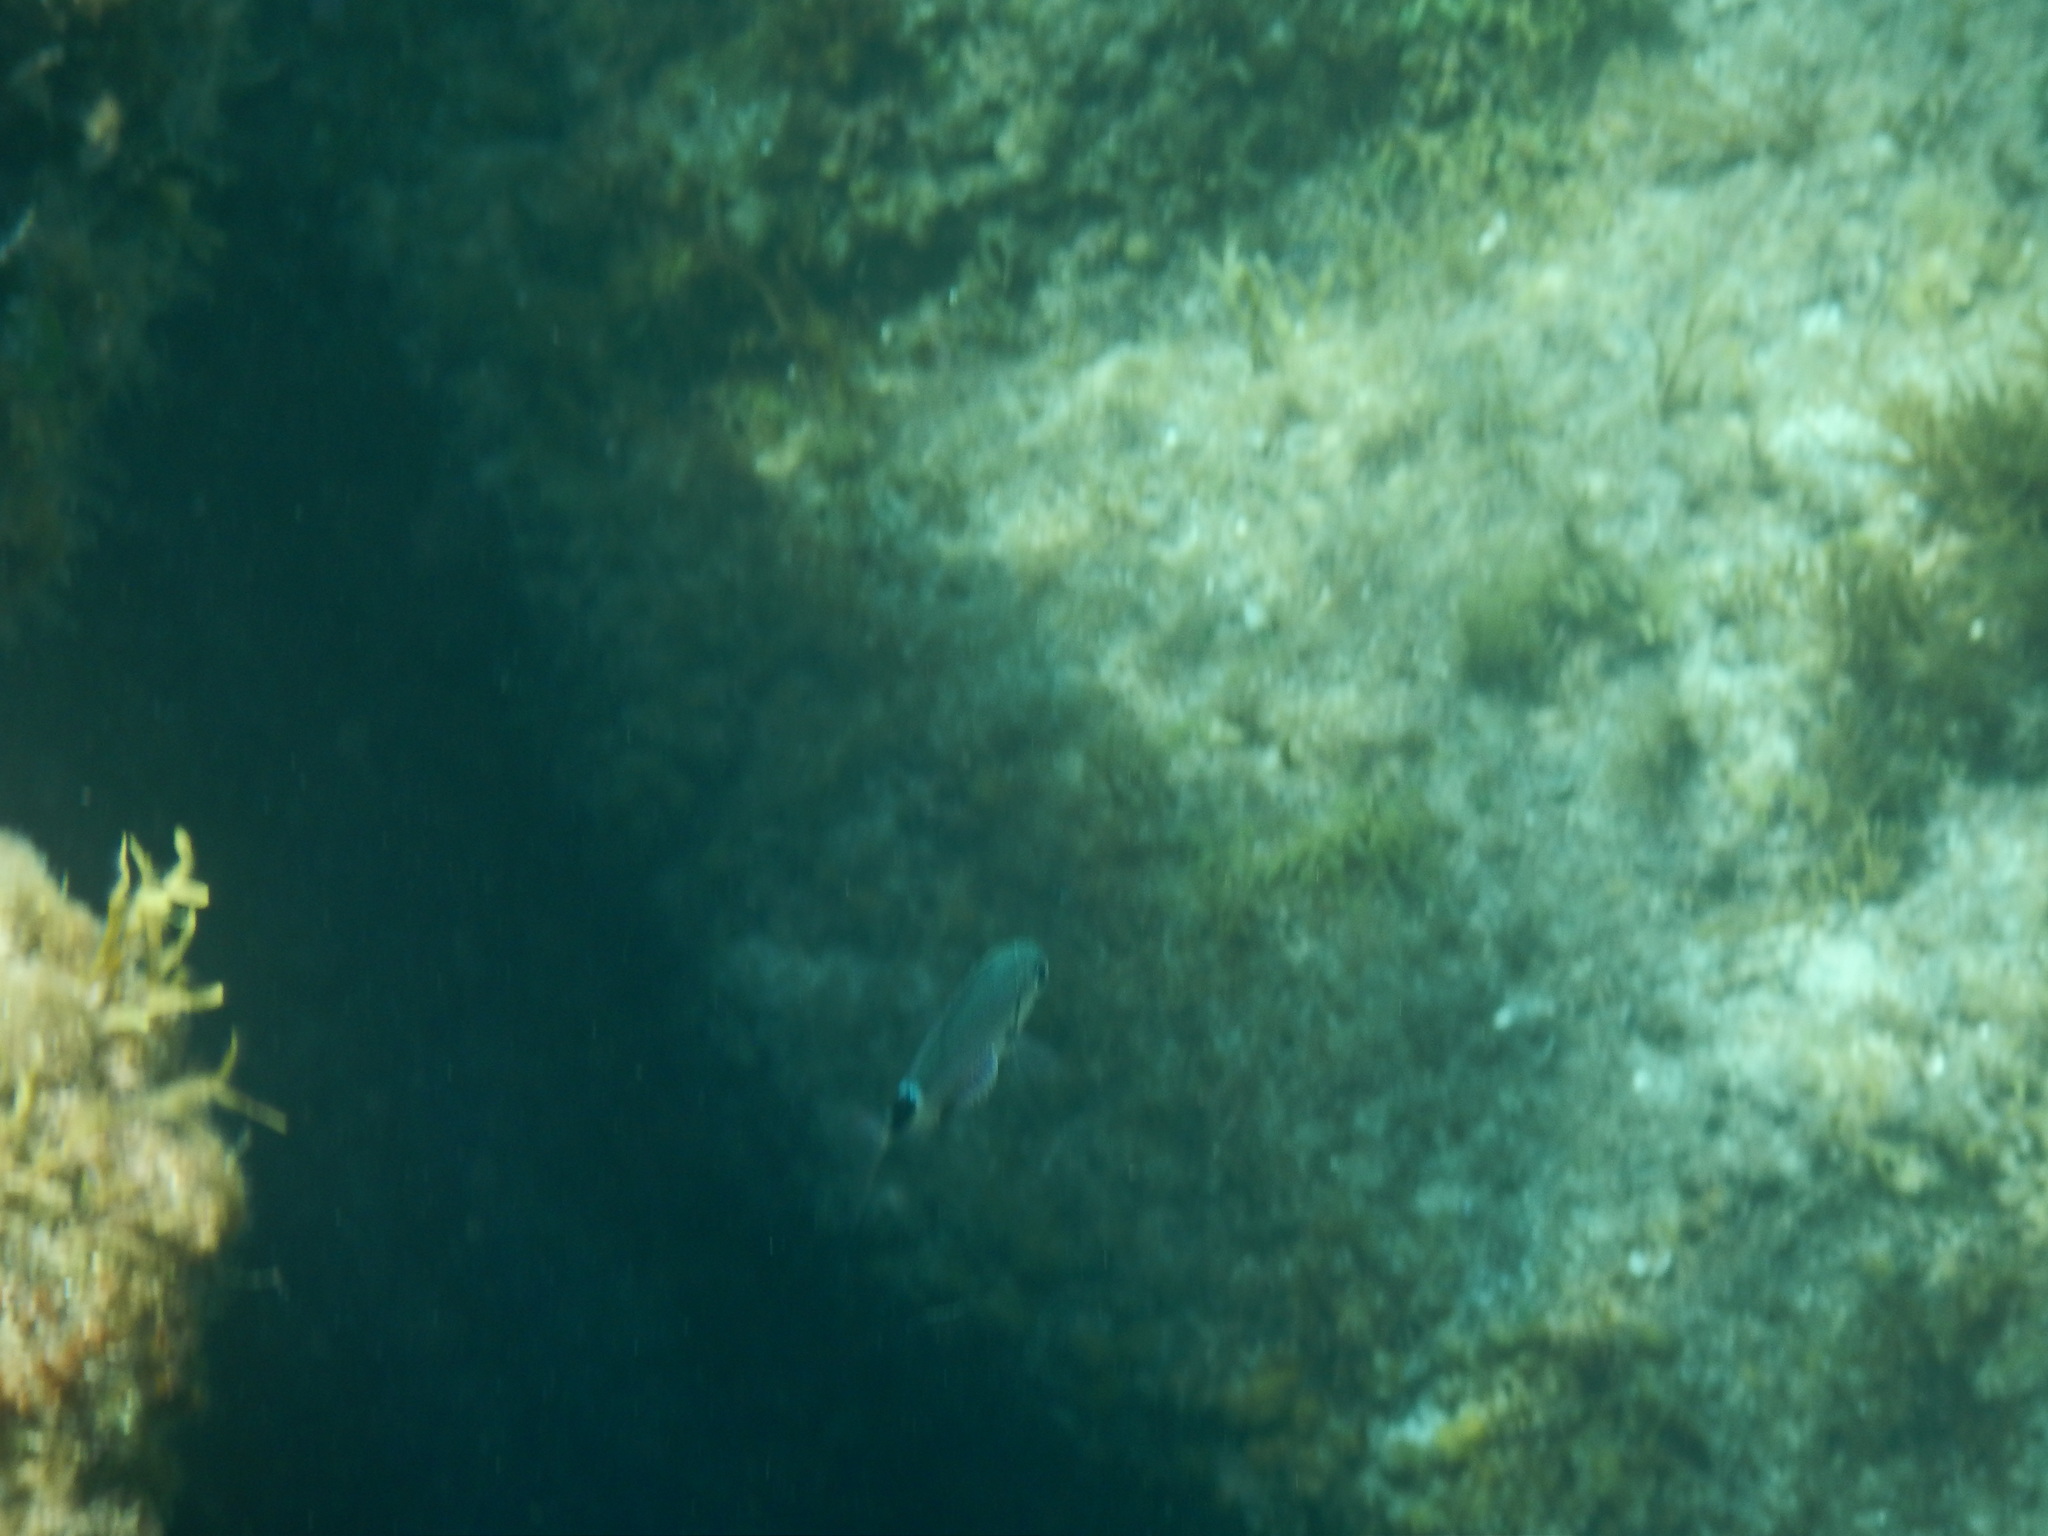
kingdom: Animalia
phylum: Chordata
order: Perciformes
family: Sparidae
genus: Oblada
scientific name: Oblada melanura
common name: Saddled seabream
